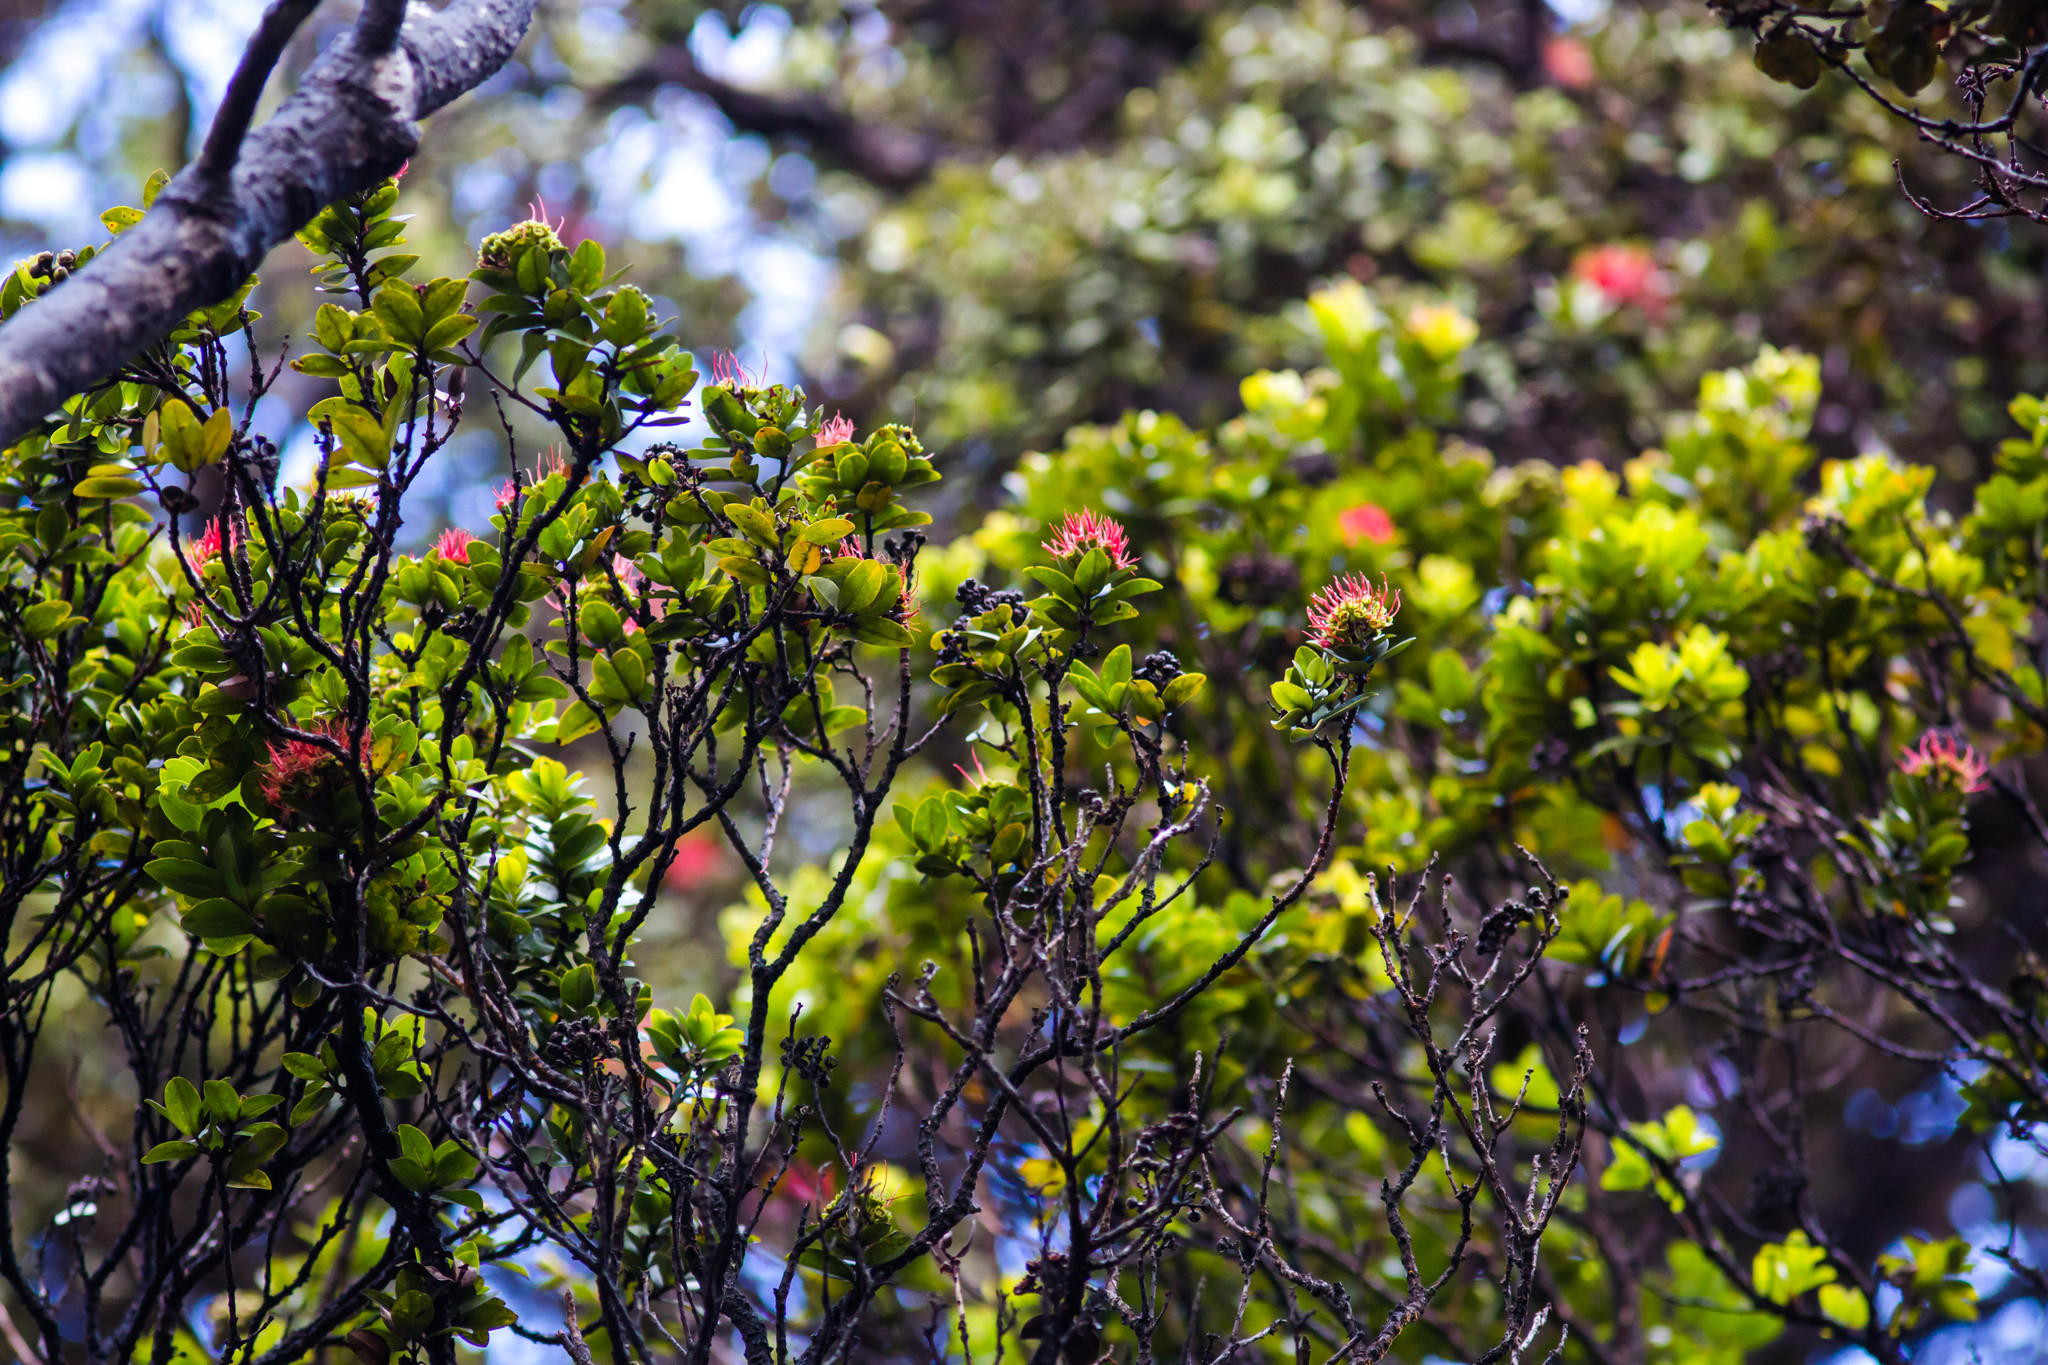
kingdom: Plantae
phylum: Tracheophyta
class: Magnoliopsida
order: Myrtales
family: Myrtaceae
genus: Metrosideros
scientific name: Metrosideros polymorpha
